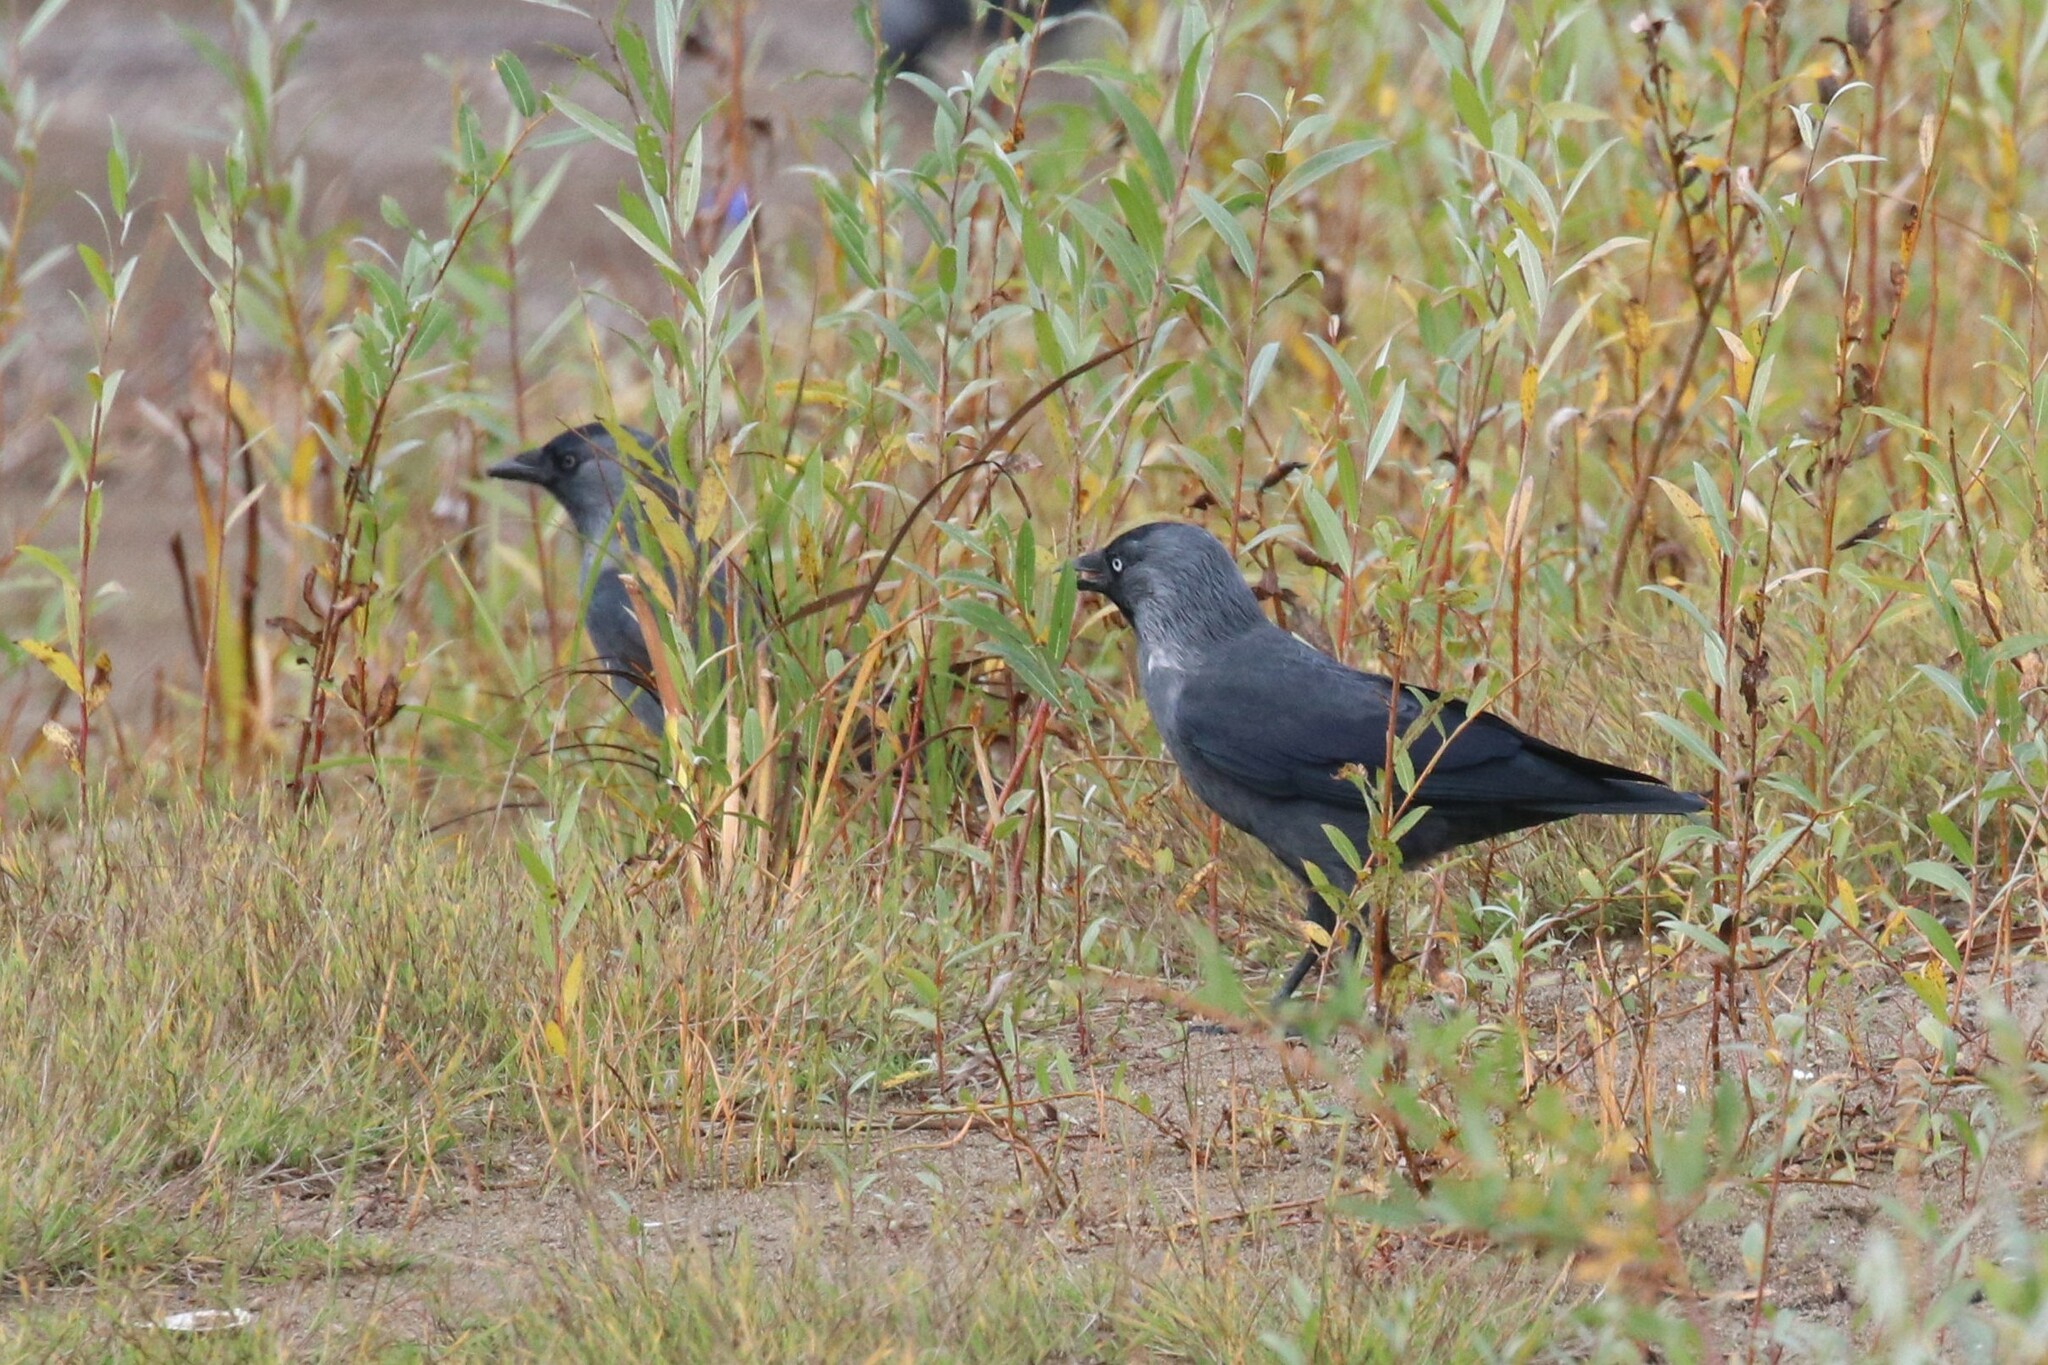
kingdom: Animalia
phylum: Chordata
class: Aves
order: Passeriformes
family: Corvidae
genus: Coloeus
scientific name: Coloeus monedula
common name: Western jackdaw
